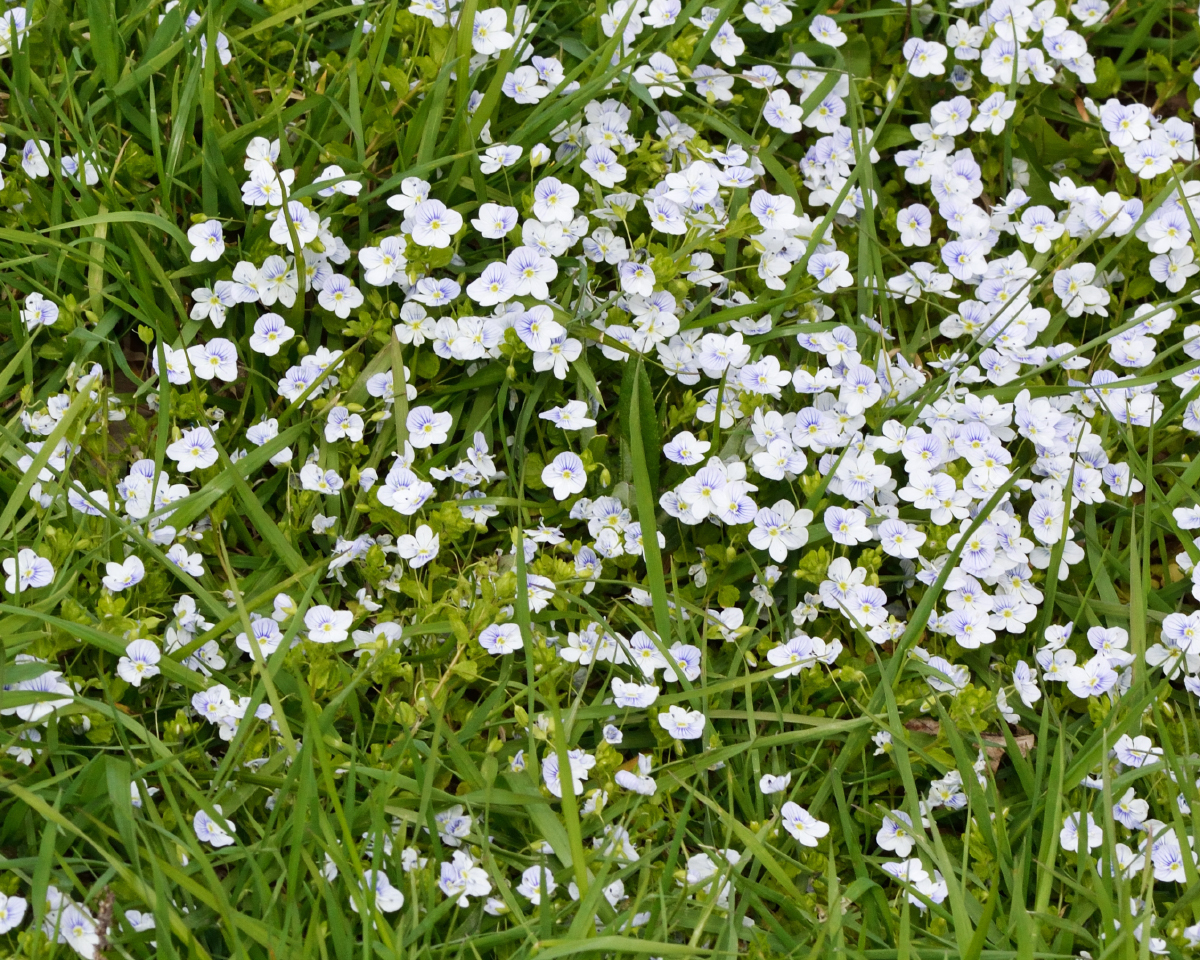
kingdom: Plantae
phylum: Tracheophyta
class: Magnoliopsida
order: Lamiales
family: Plantaginaceae
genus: Veronica
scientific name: Veronica filiformis
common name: Slender speedwell
